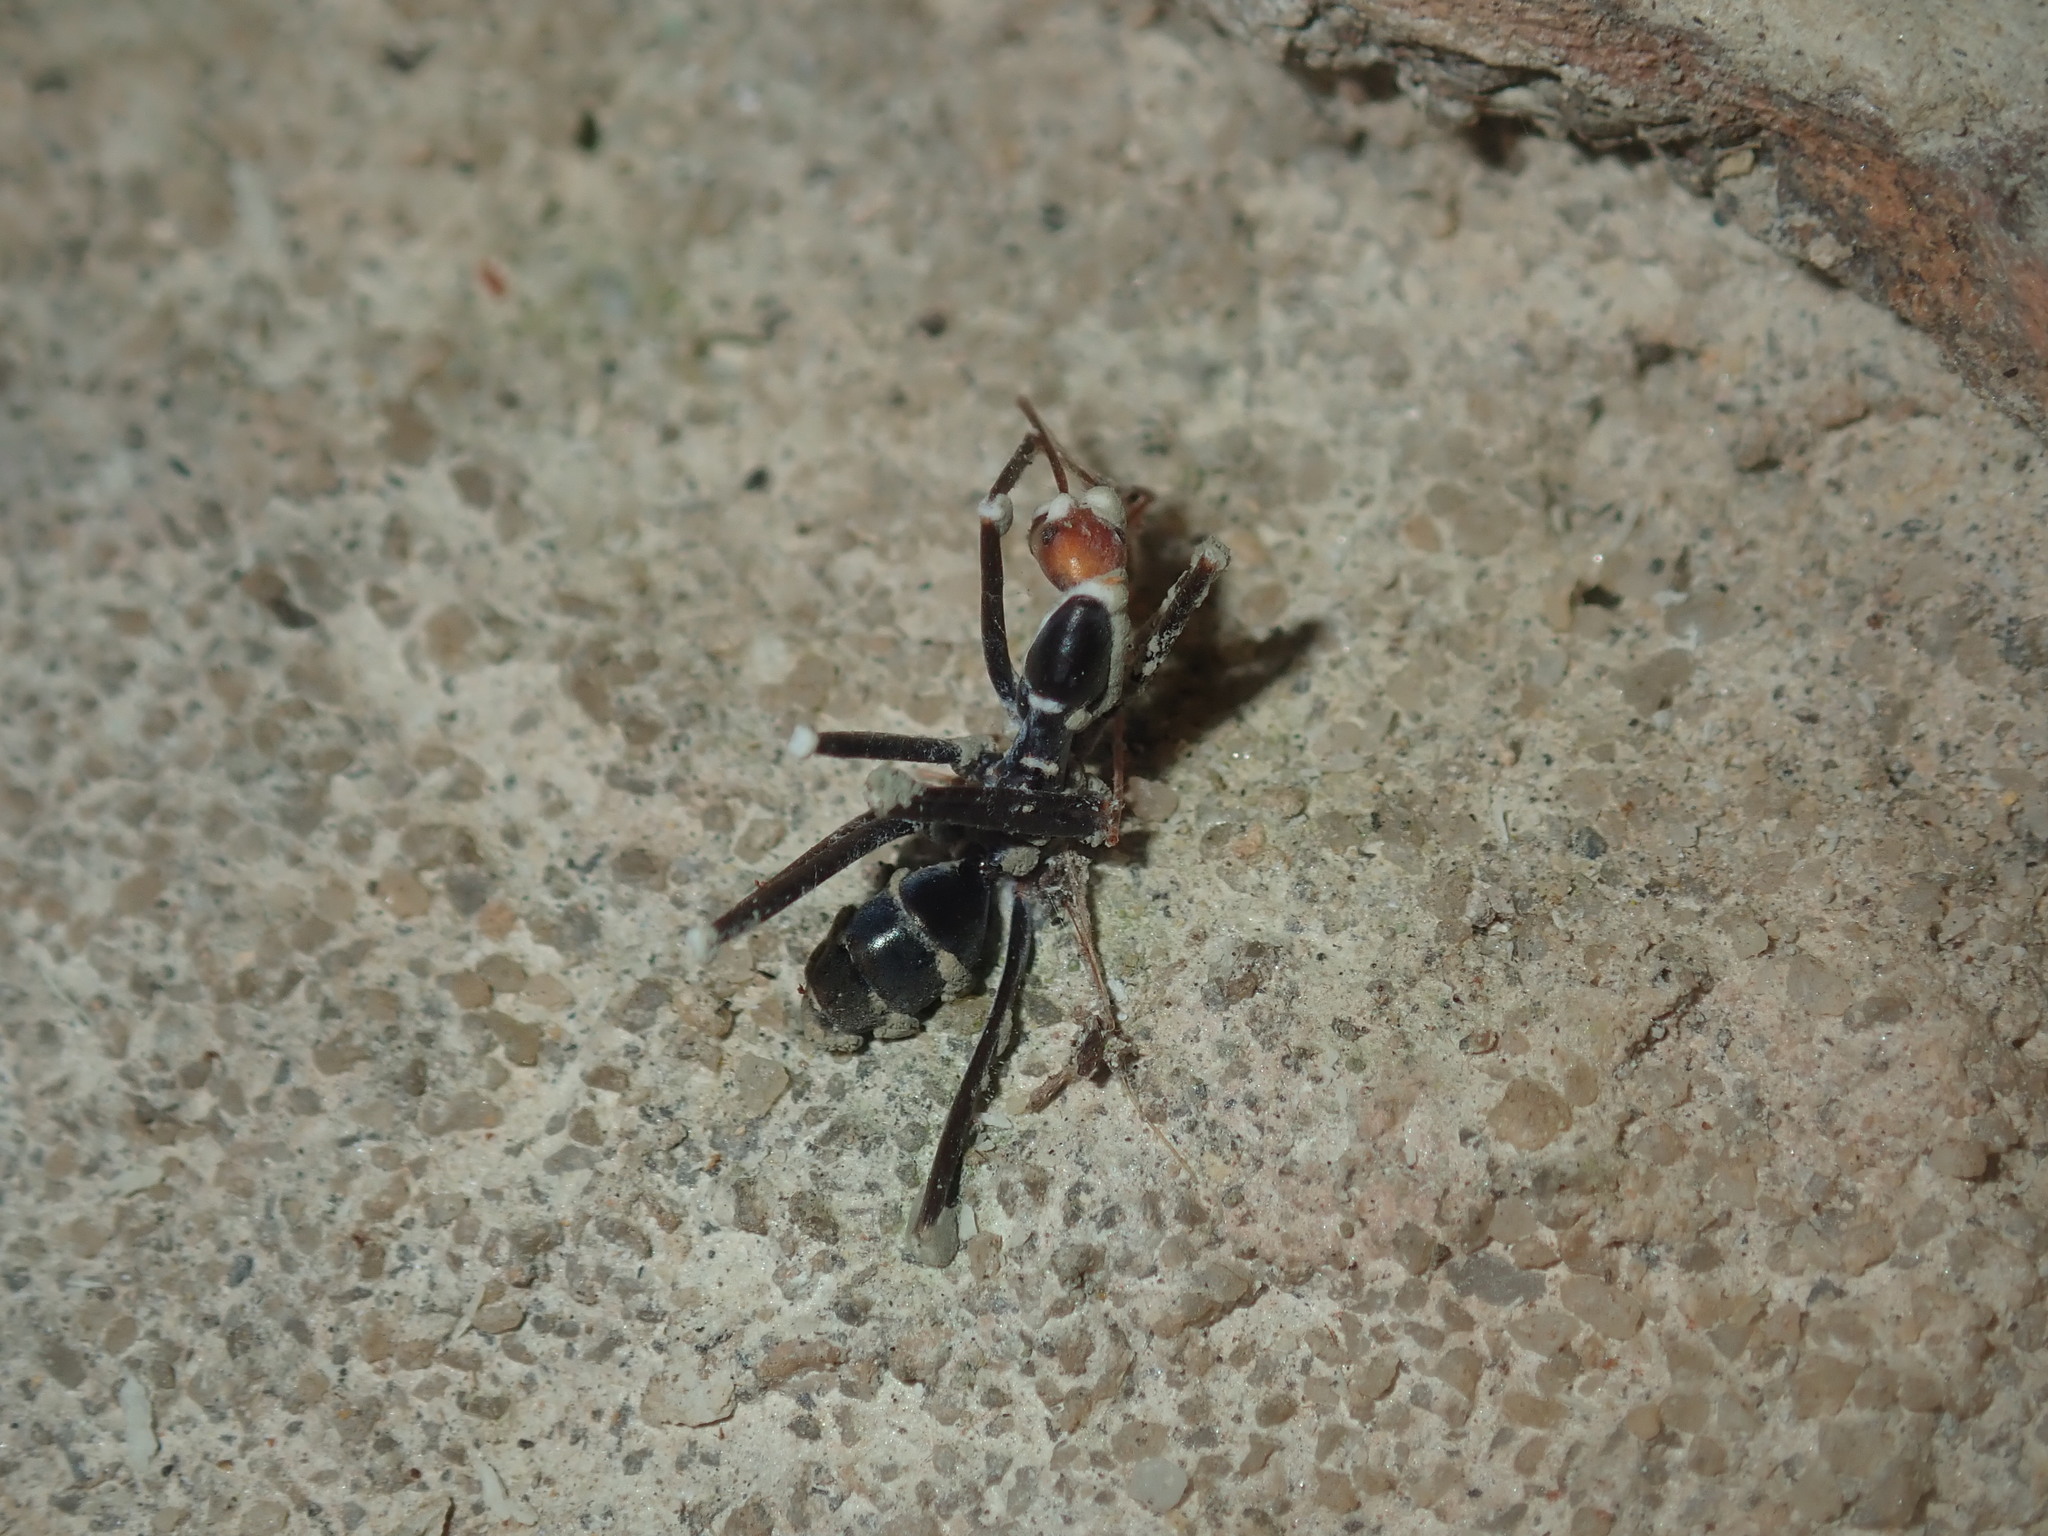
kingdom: Animalia
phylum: Arthropoda
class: Insecta
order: Hymenoptera
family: Formicidae
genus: Leptomyrmex
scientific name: Leptomyrmex erythrocephalus
